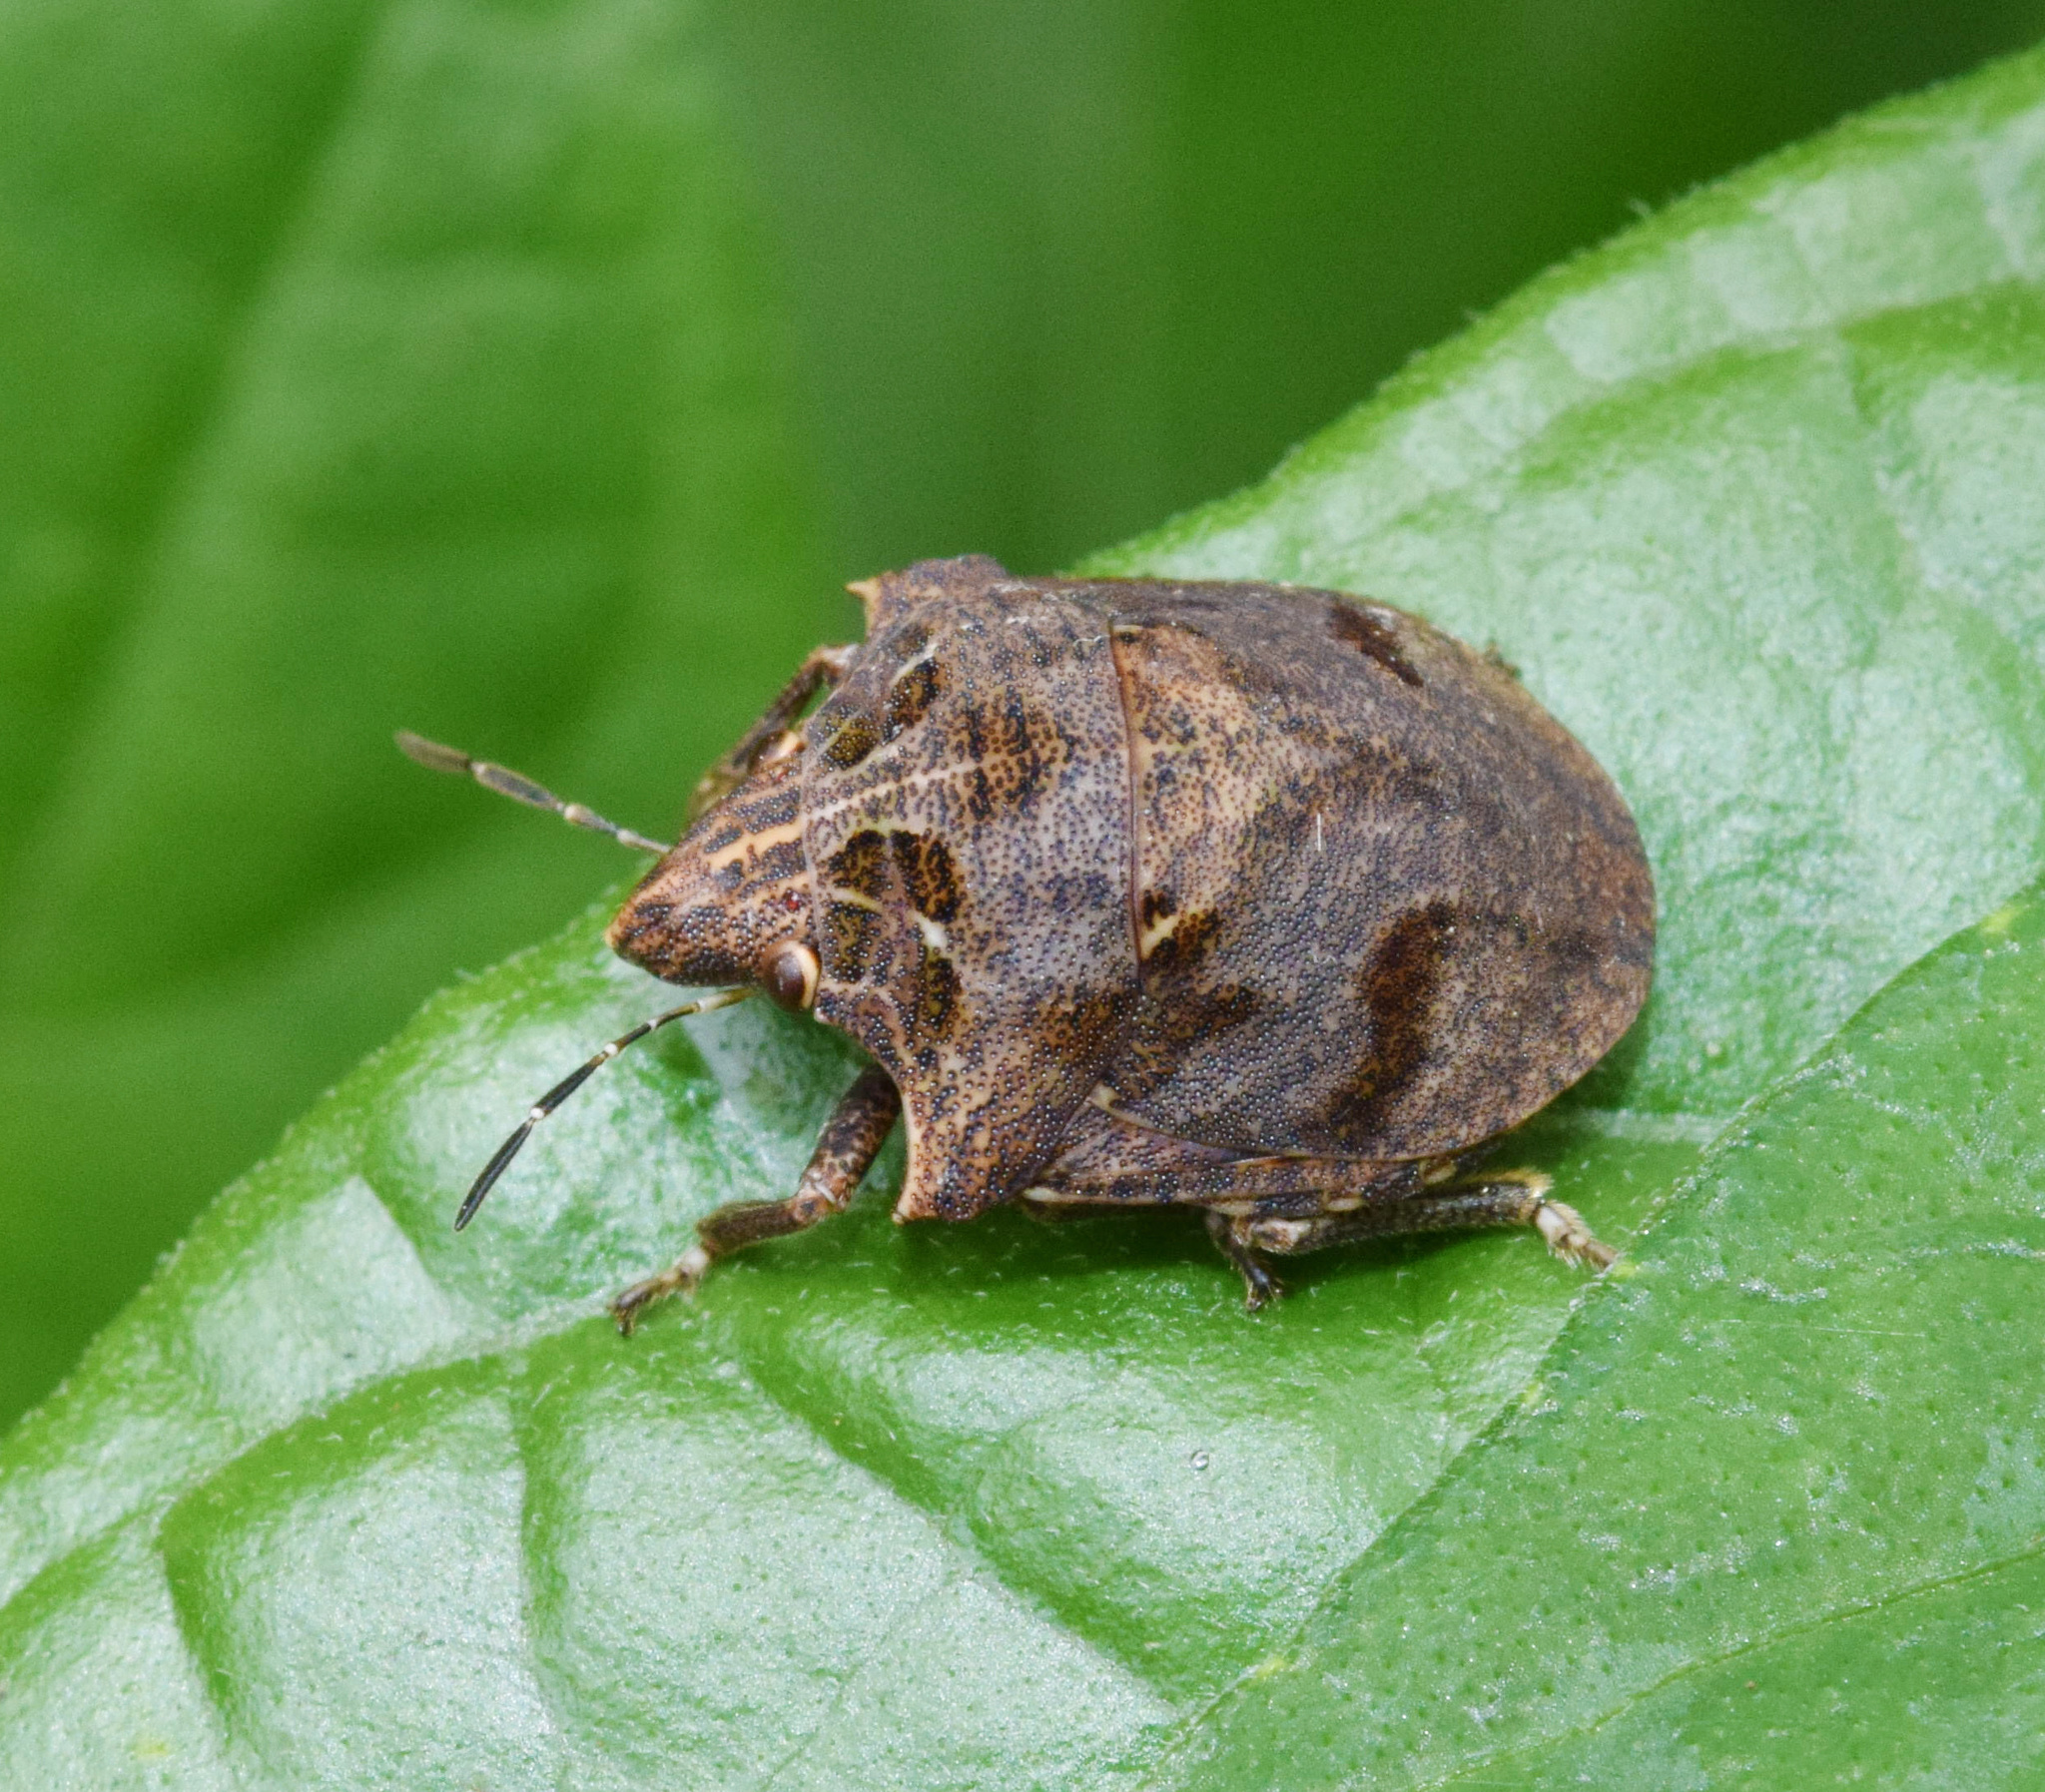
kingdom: Animalia
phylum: Arthropoda
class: Insecta
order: Hemiptera
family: Scutelleridae
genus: Hotea
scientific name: Hotea subfasciata
